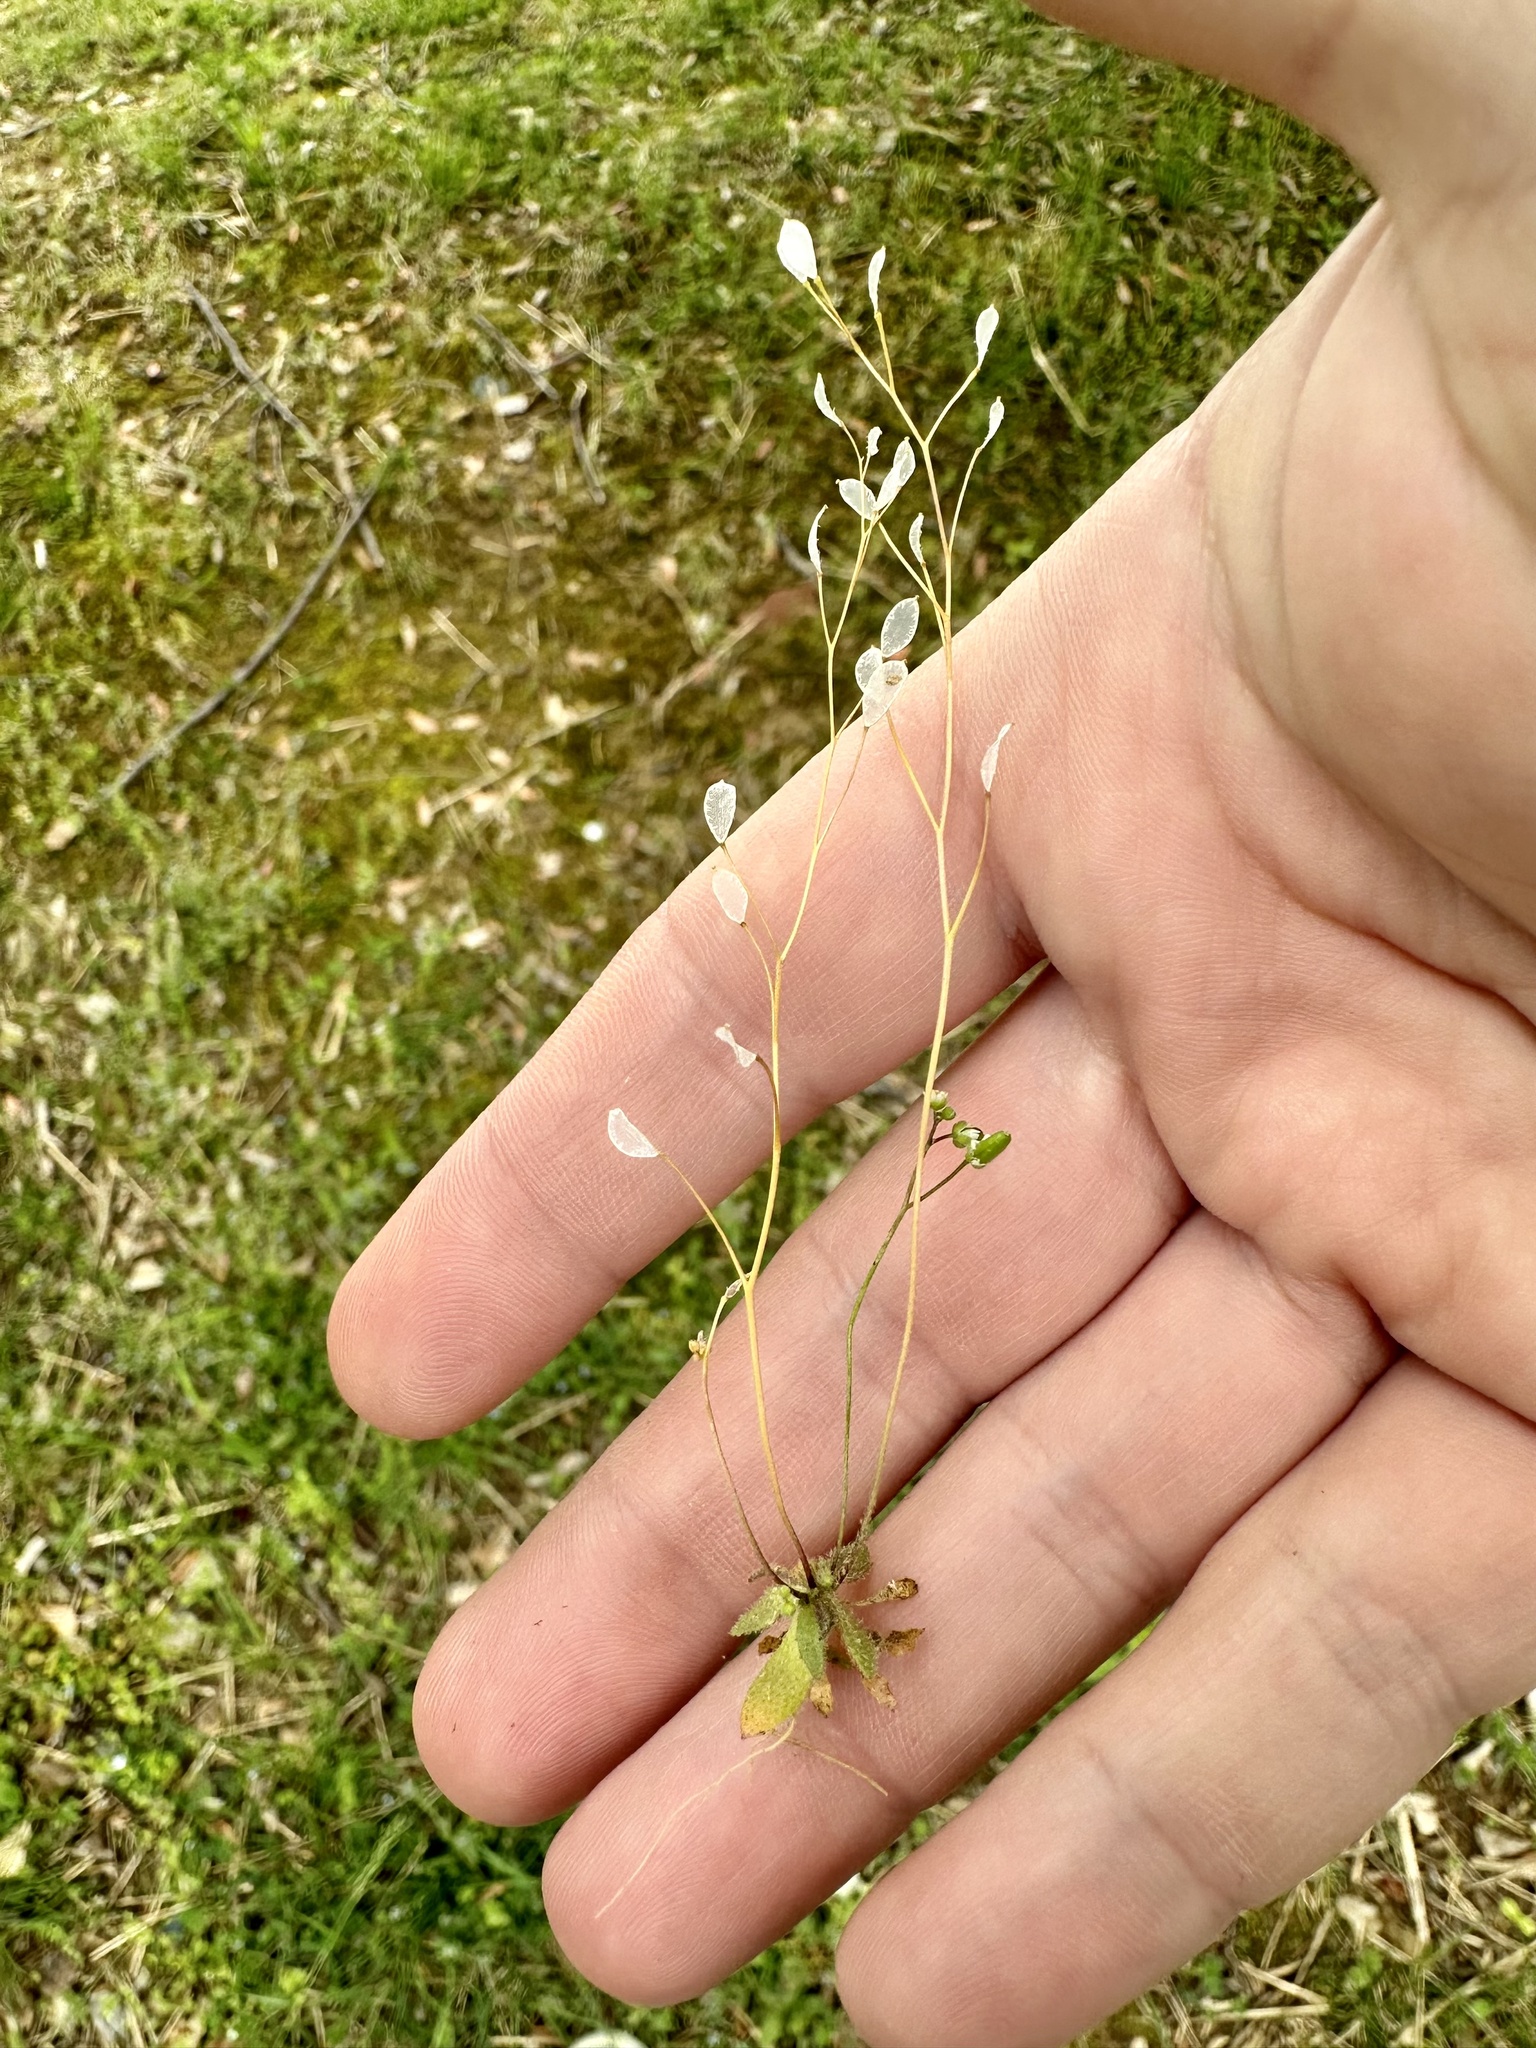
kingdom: Plantae
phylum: Tracheophyta
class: Magnoliopsida
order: Brassicales
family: Brassicaceae
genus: Draba
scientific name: Draba verna
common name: Spring draba
